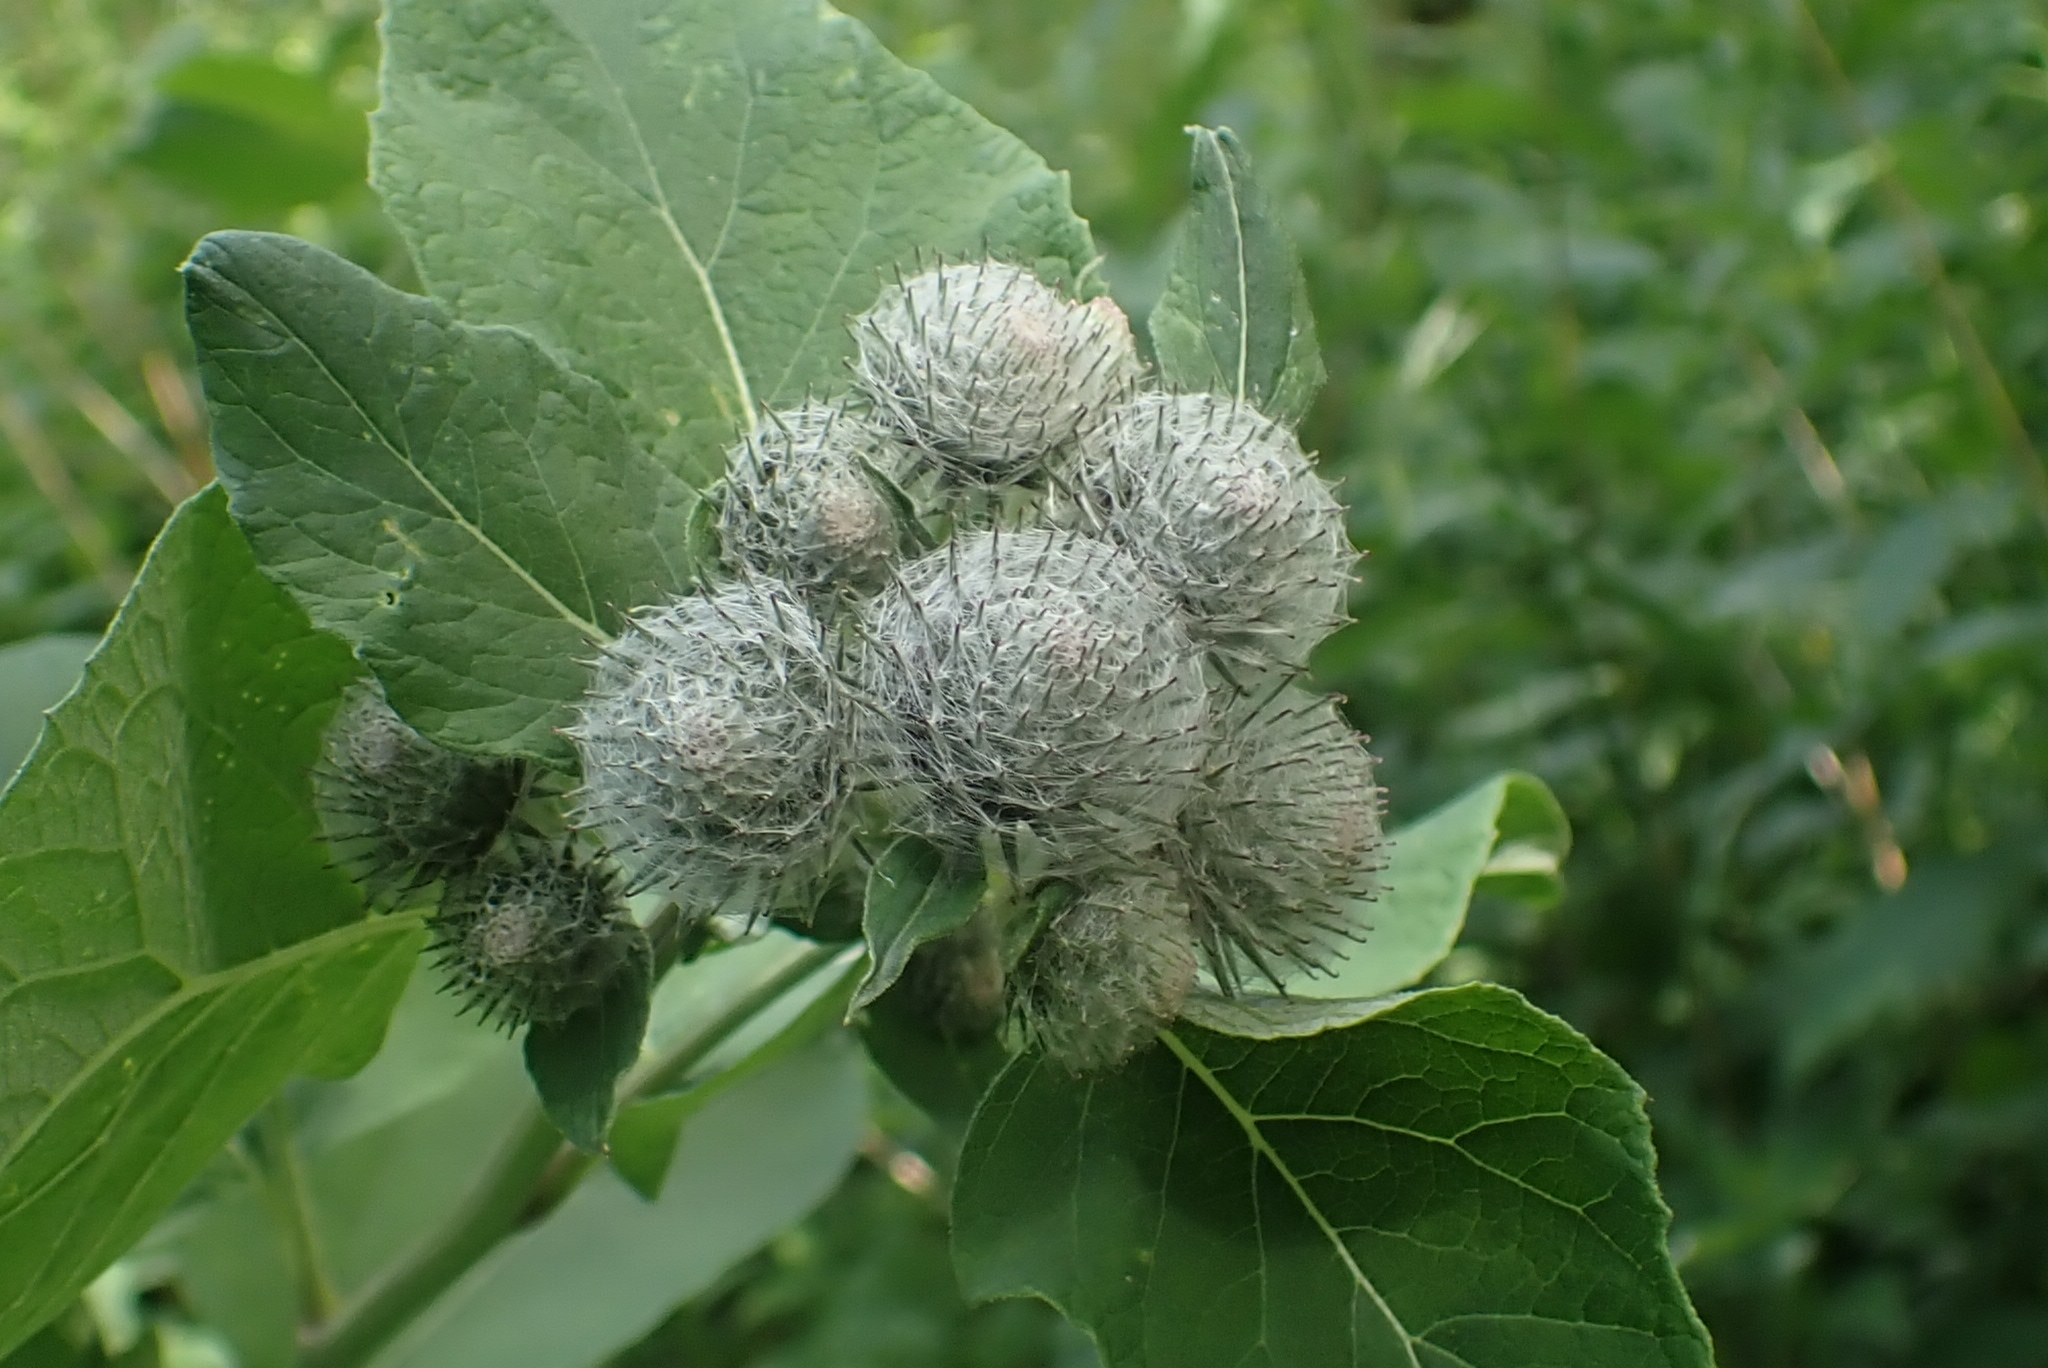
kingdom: Plantae
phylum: Tracheophyta
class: Magnoliopsida
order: Asterales
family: Asteraceae
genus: Arctium
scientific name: Arctium tomentosum
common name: Woolly burdock
